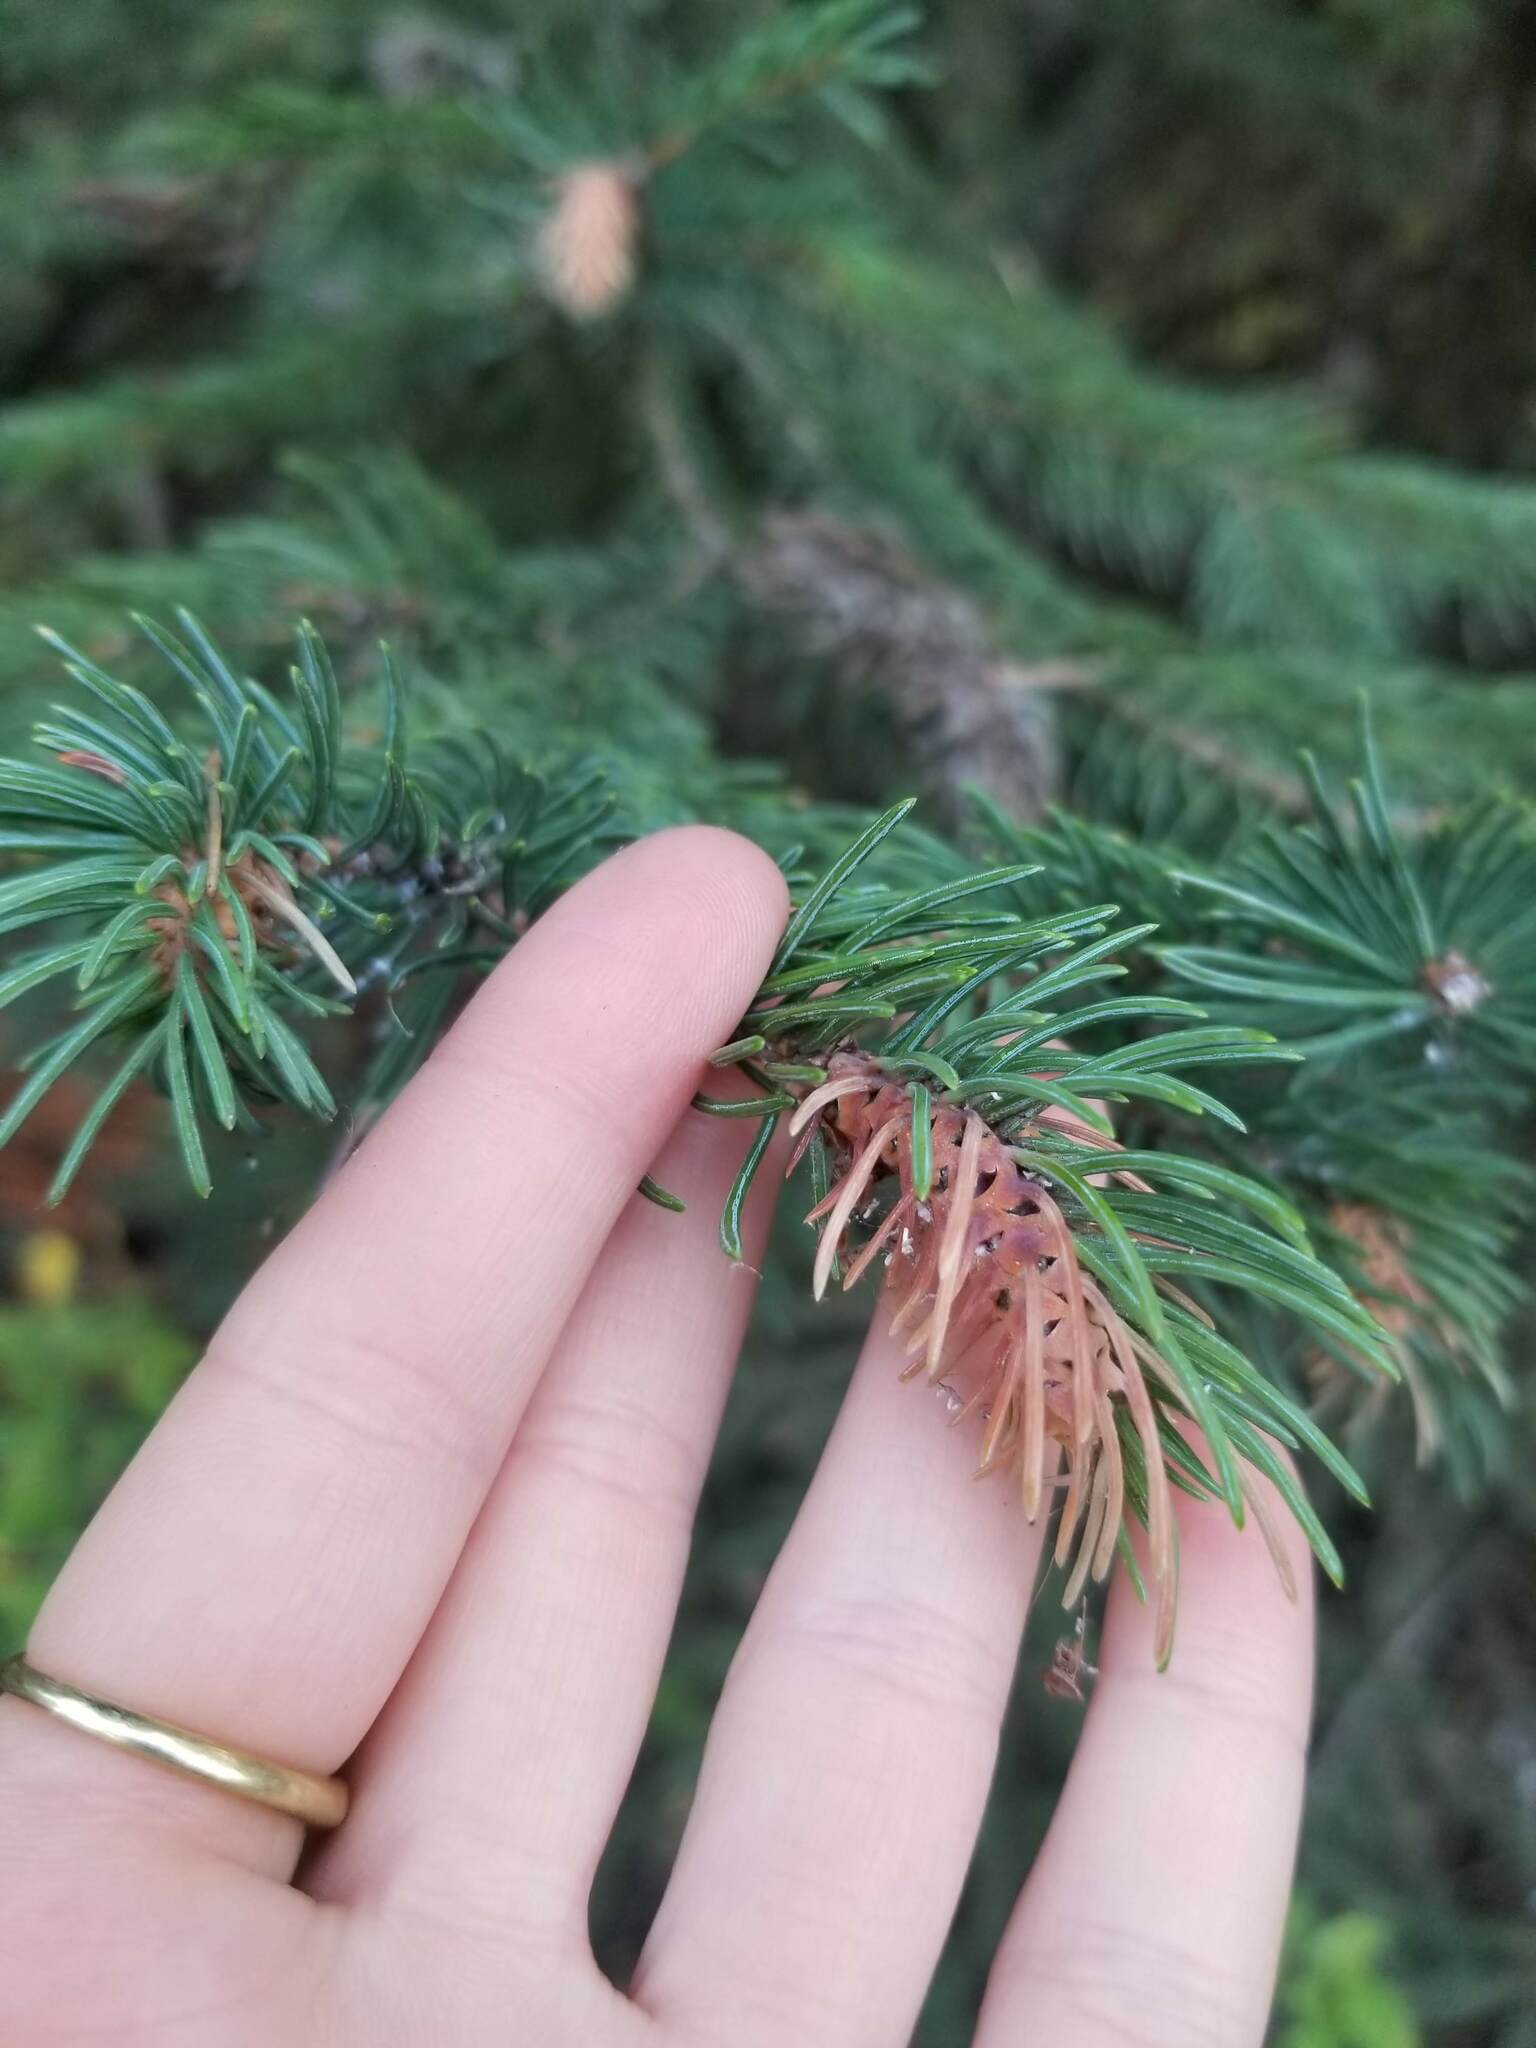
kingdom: Animalia
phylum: Arthropoda
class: Insecta
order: Hemiptera
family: Adelgidae
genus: Adelges
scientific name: Adelges cooleyi
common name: Cooley spruce gall adelgid
